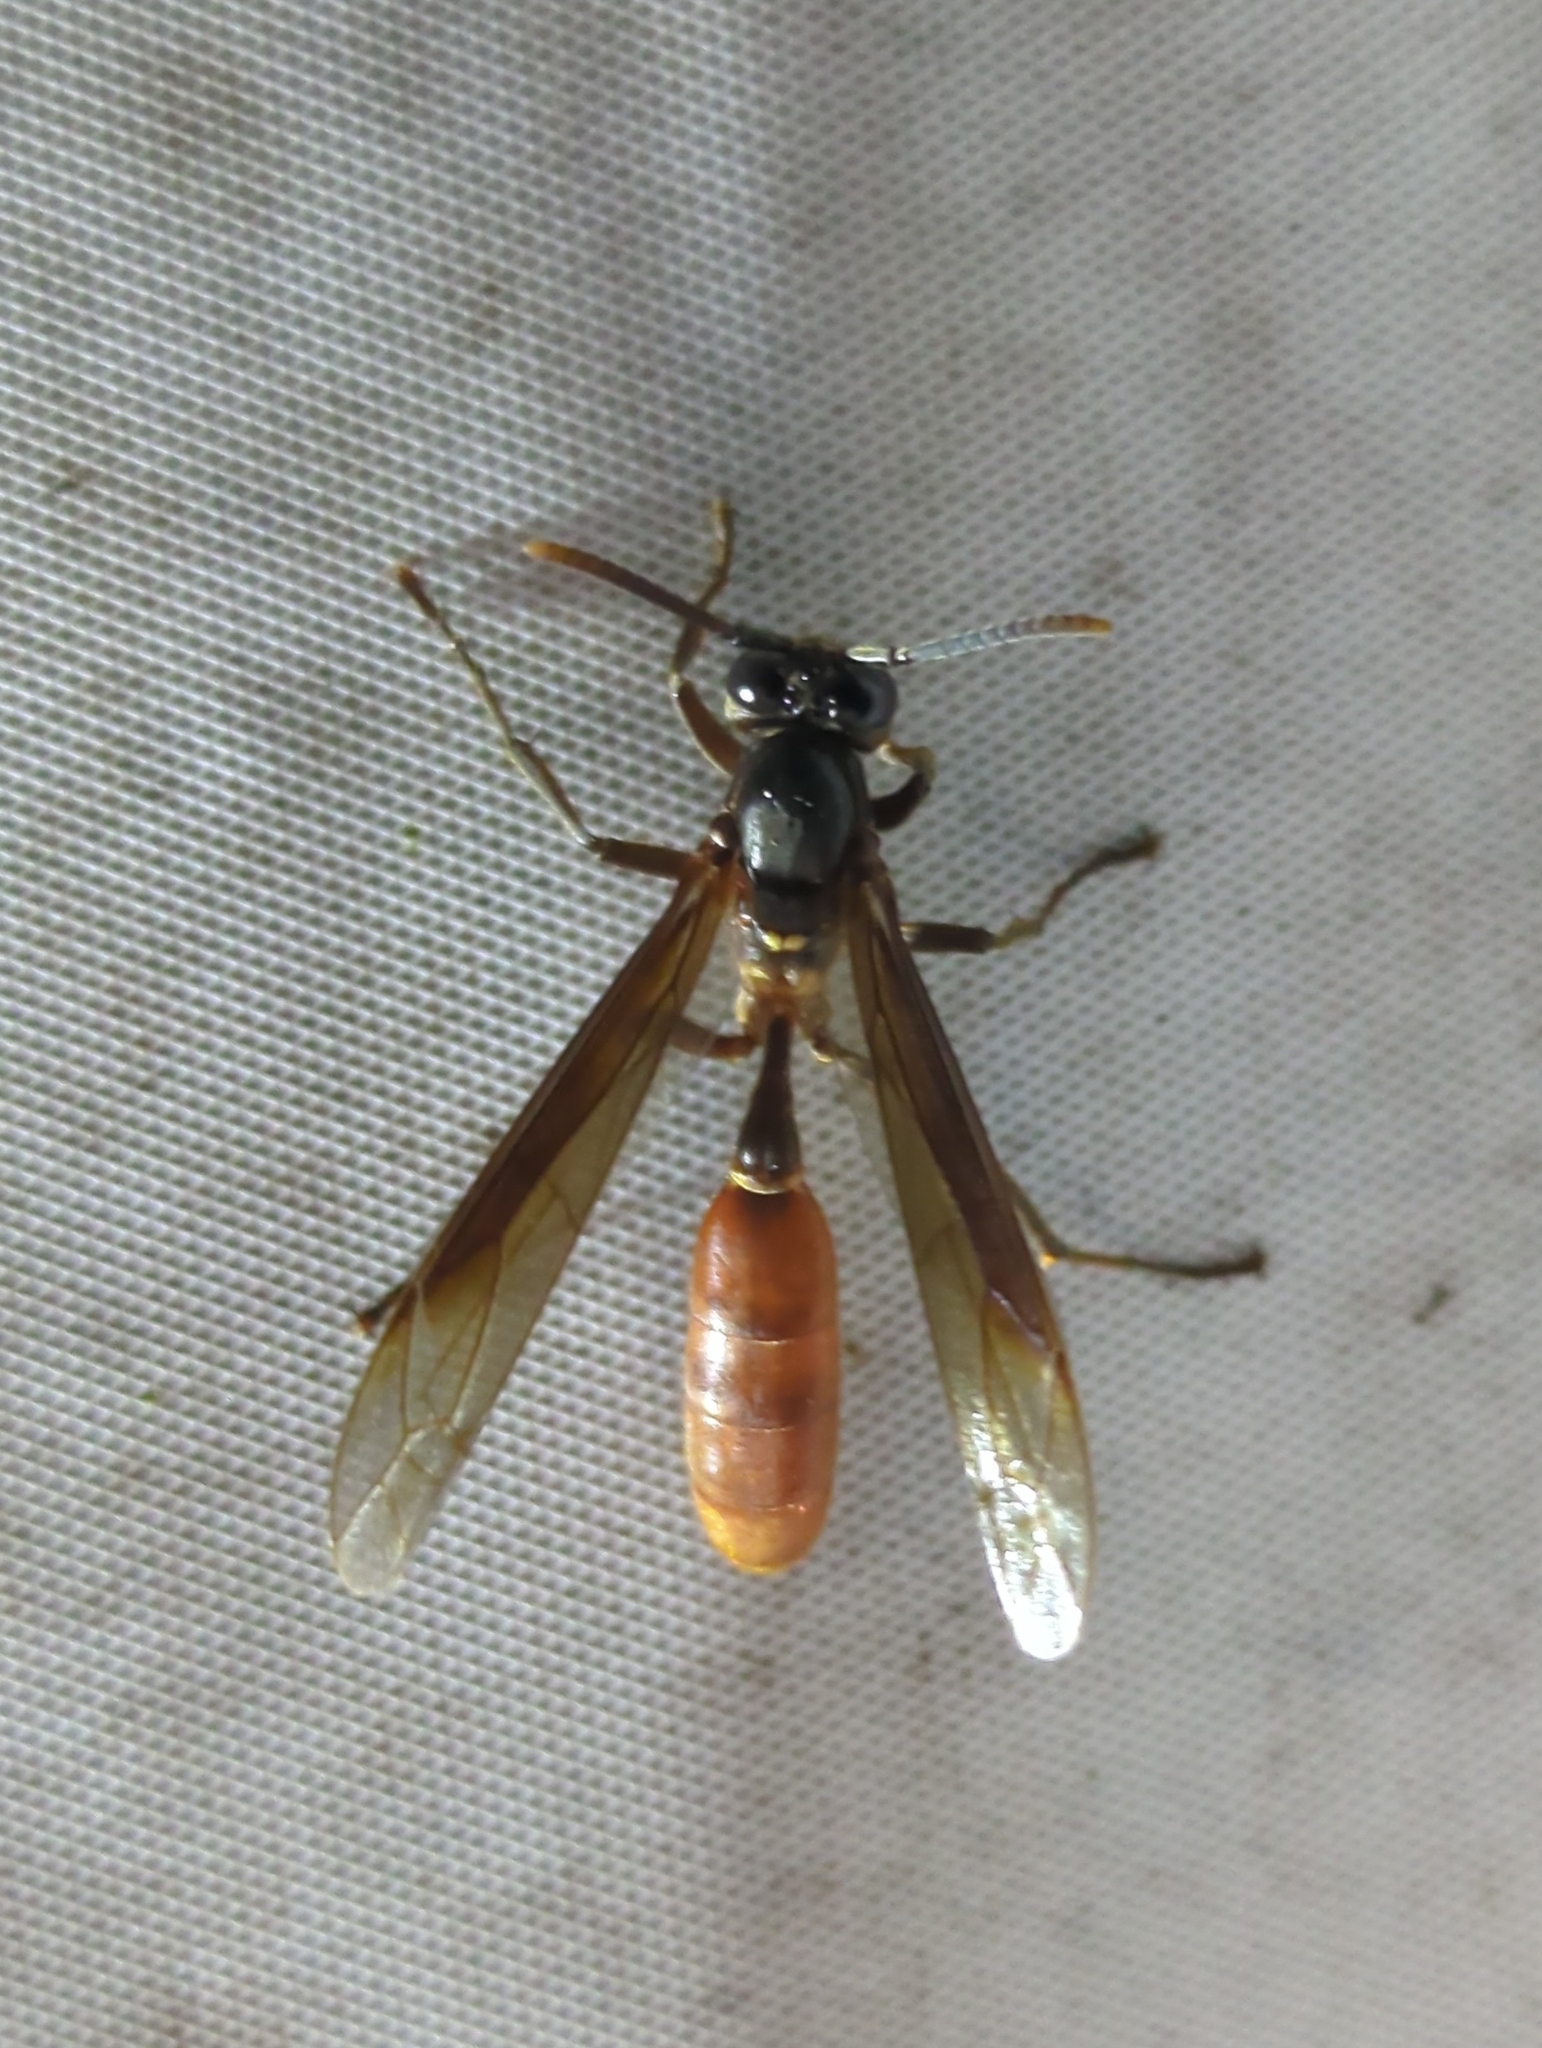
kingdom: Animalia
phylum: Arthropoda
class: Insecta
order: Hymenoptera
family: Vespidae
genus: Apoica
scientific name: Apoica
